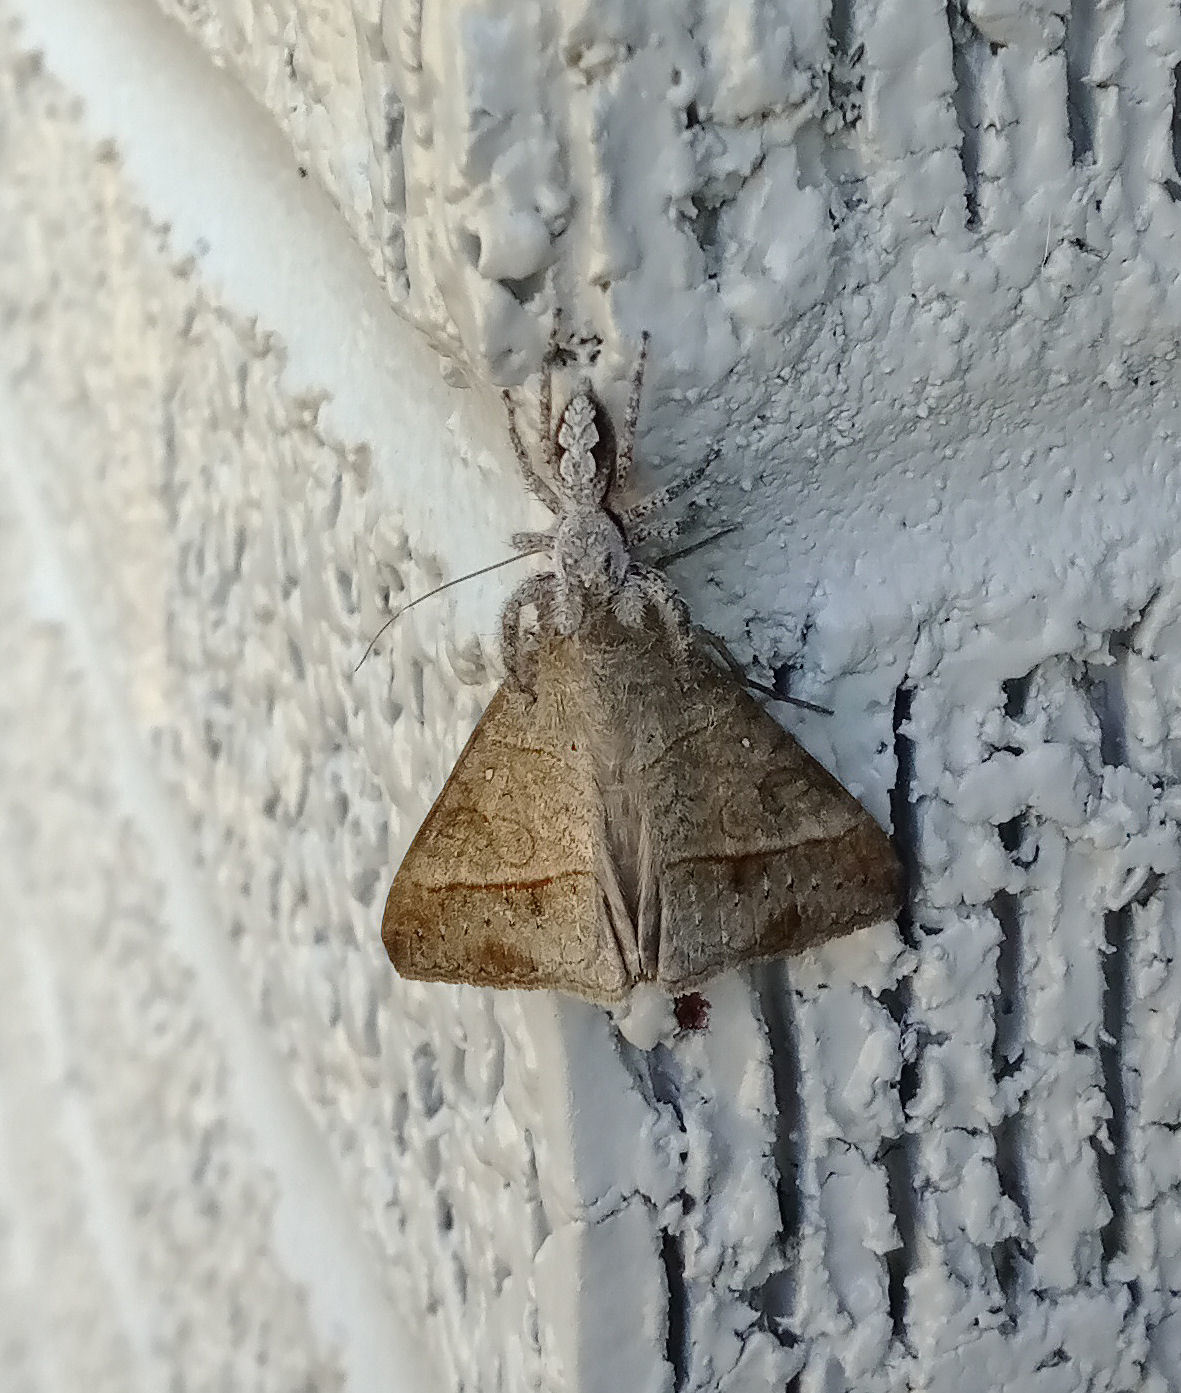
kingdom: Animalia
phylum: Arthropoda
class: Insecta
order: Lepidoptera
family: Erebidae
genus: Mocis
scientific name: Mocis latipes
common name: Striped grass looper
